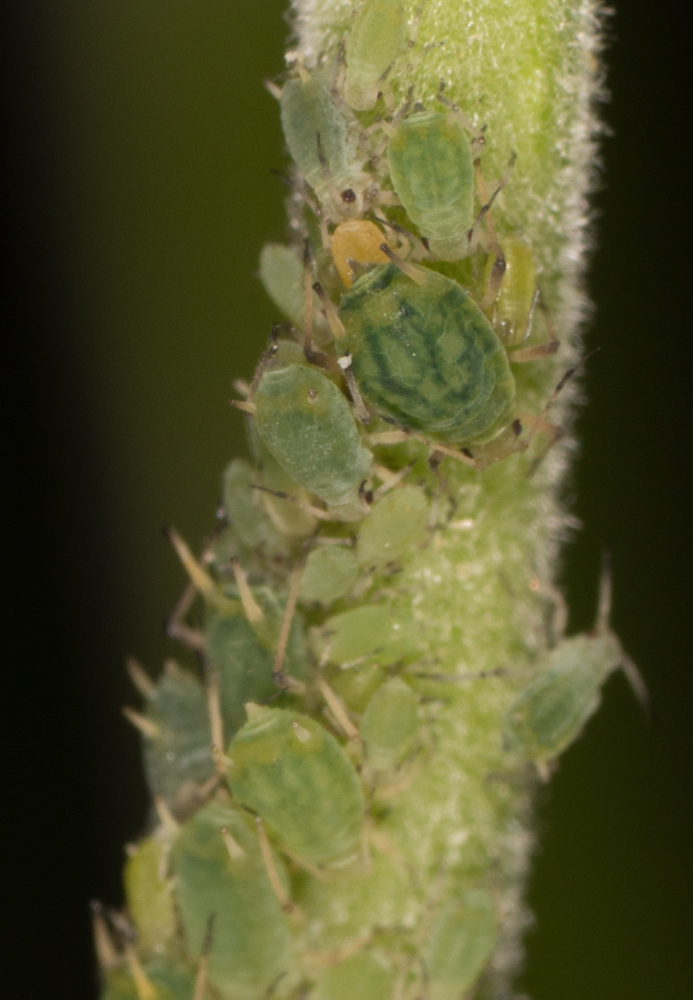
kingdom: Animalia
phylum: Arthropoda
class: Insecta
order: Hemiptera
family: Aphididae
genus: Aphis
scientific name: Aphis farinosa
